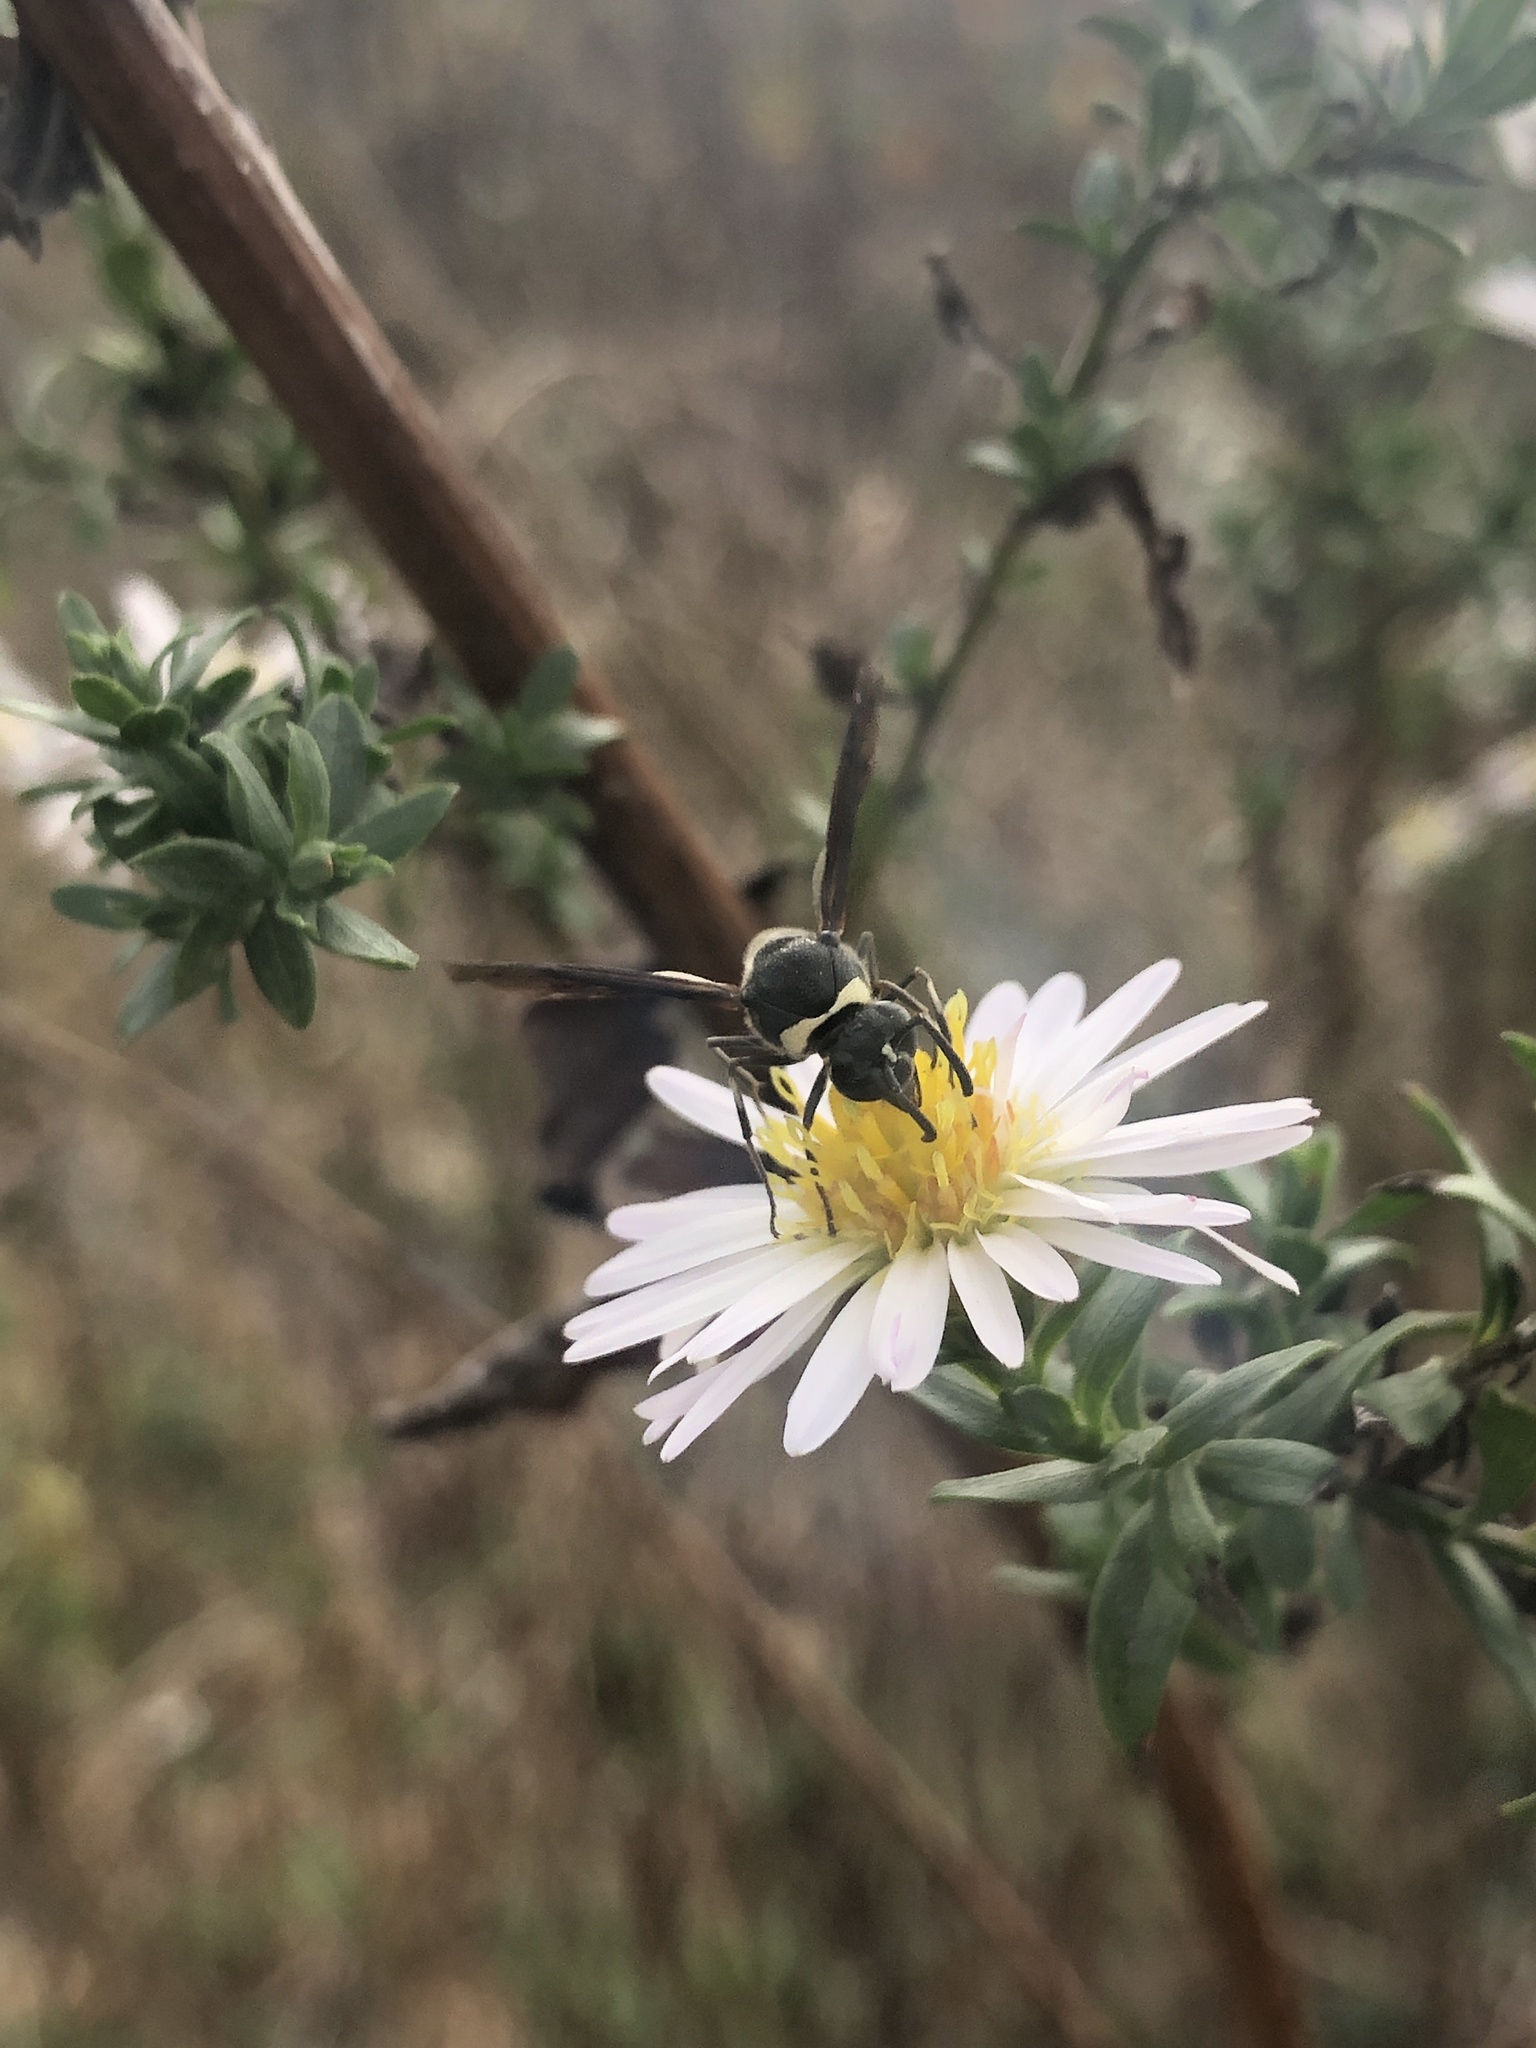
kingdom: Animalia
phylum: Arthropoda
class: Insecta
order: Hymenoptera
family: Vespidae
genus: Eumenes
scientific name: Eumenes fraternus
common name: Fraternal potter wasp
